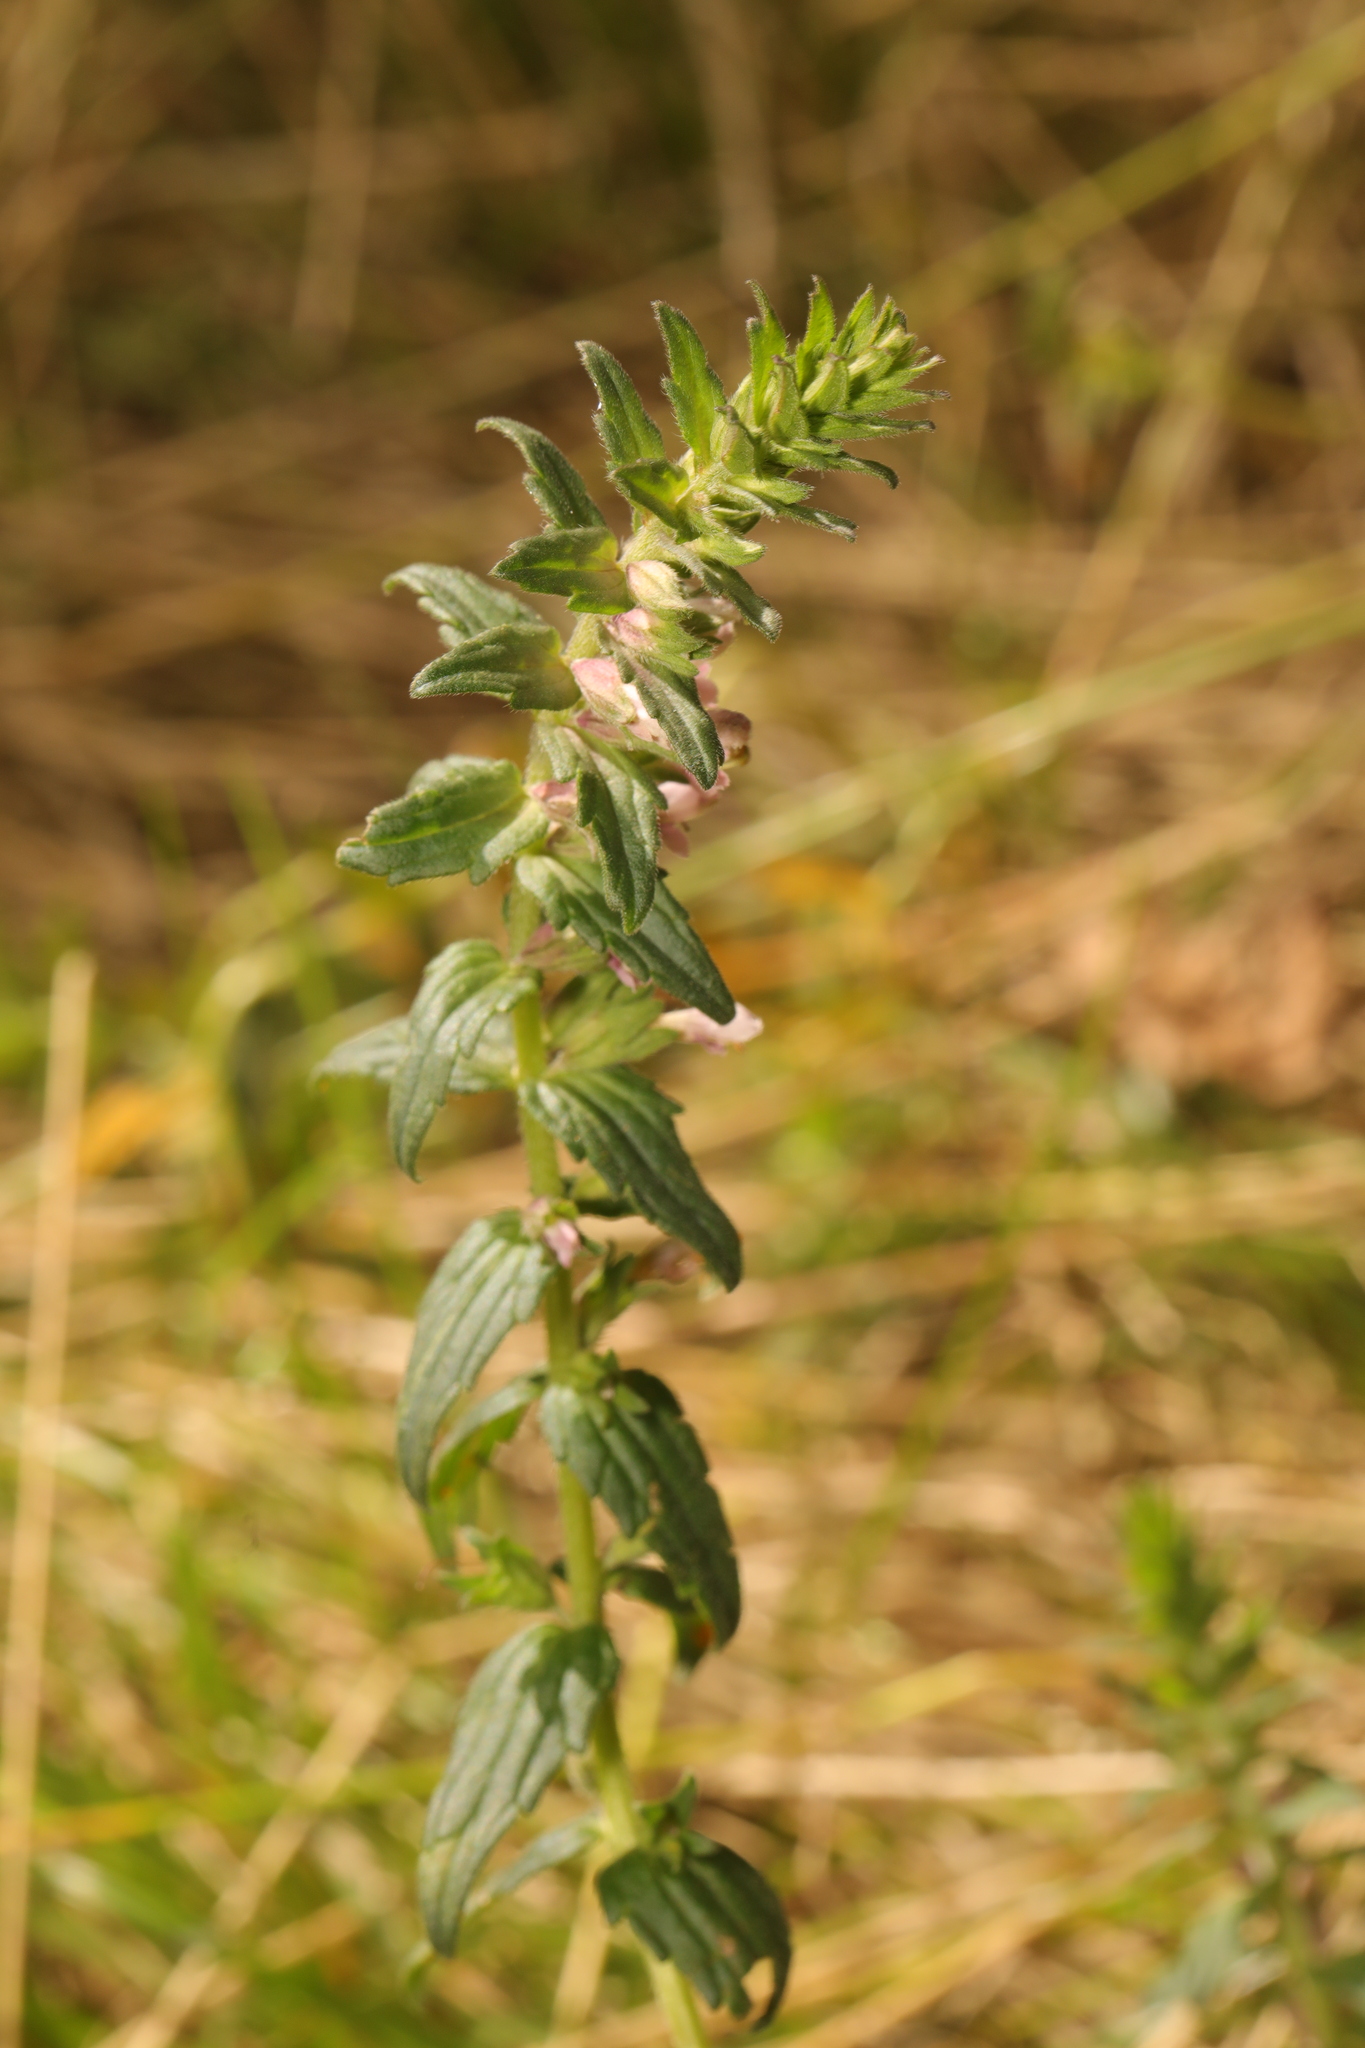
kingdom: Plantae
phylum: Tracheophyta
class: Magnoliopsida
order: Lamiales
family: Orobanchaceae
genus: Odontites
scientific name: Odontites vernus
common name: Red bartsia
